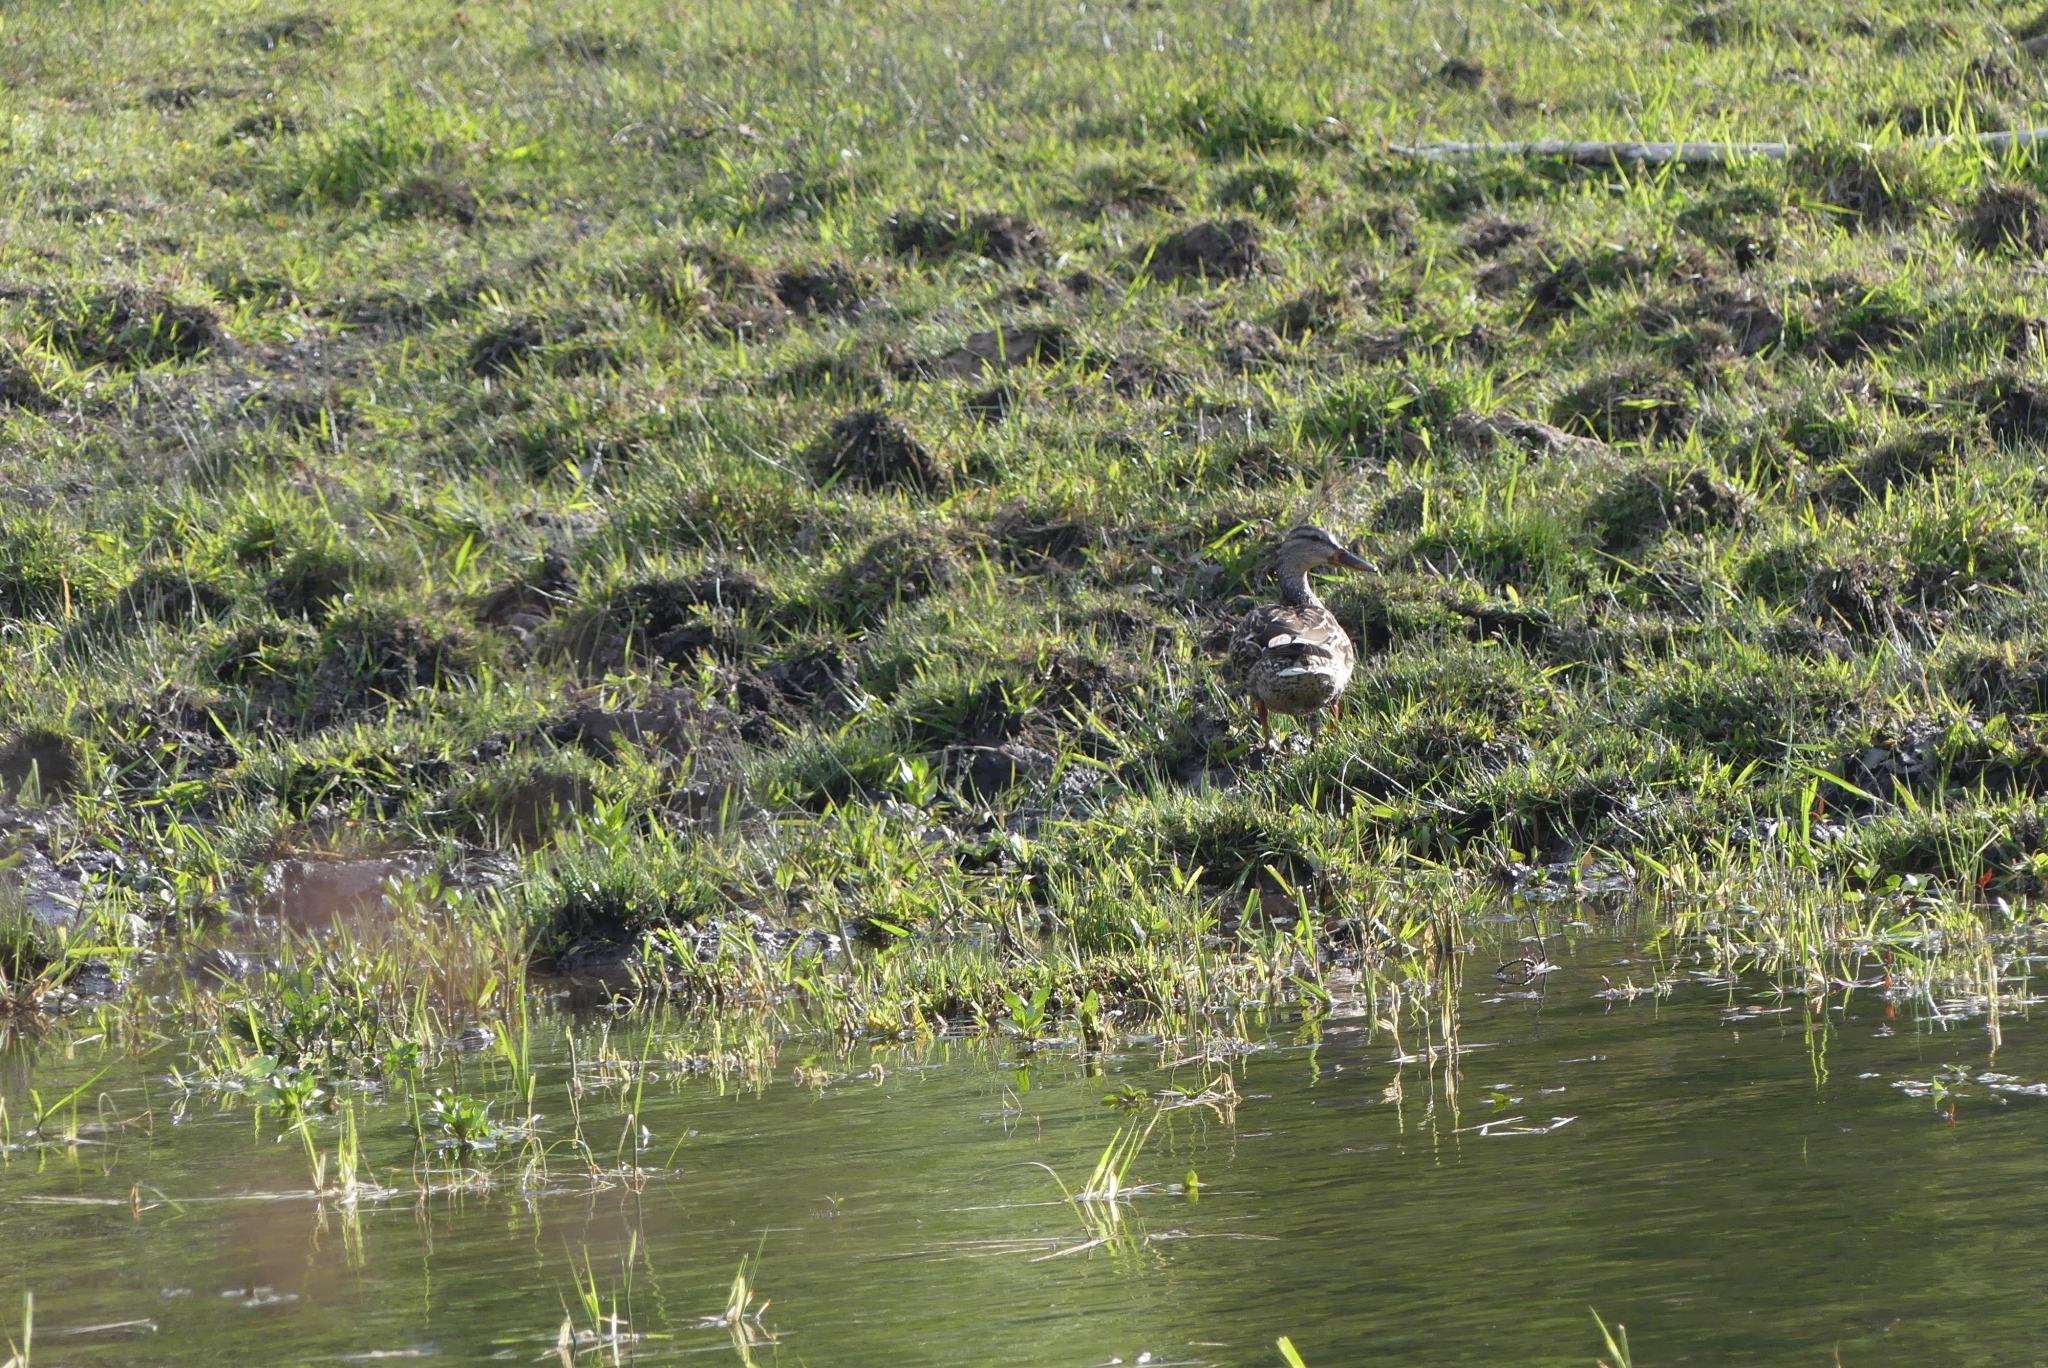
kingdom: Animalia
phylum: Chordata
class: Aves
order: Anseriformes
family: Anatidae
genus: Anas
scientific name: Anas platyrhynchos
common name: Mallard
